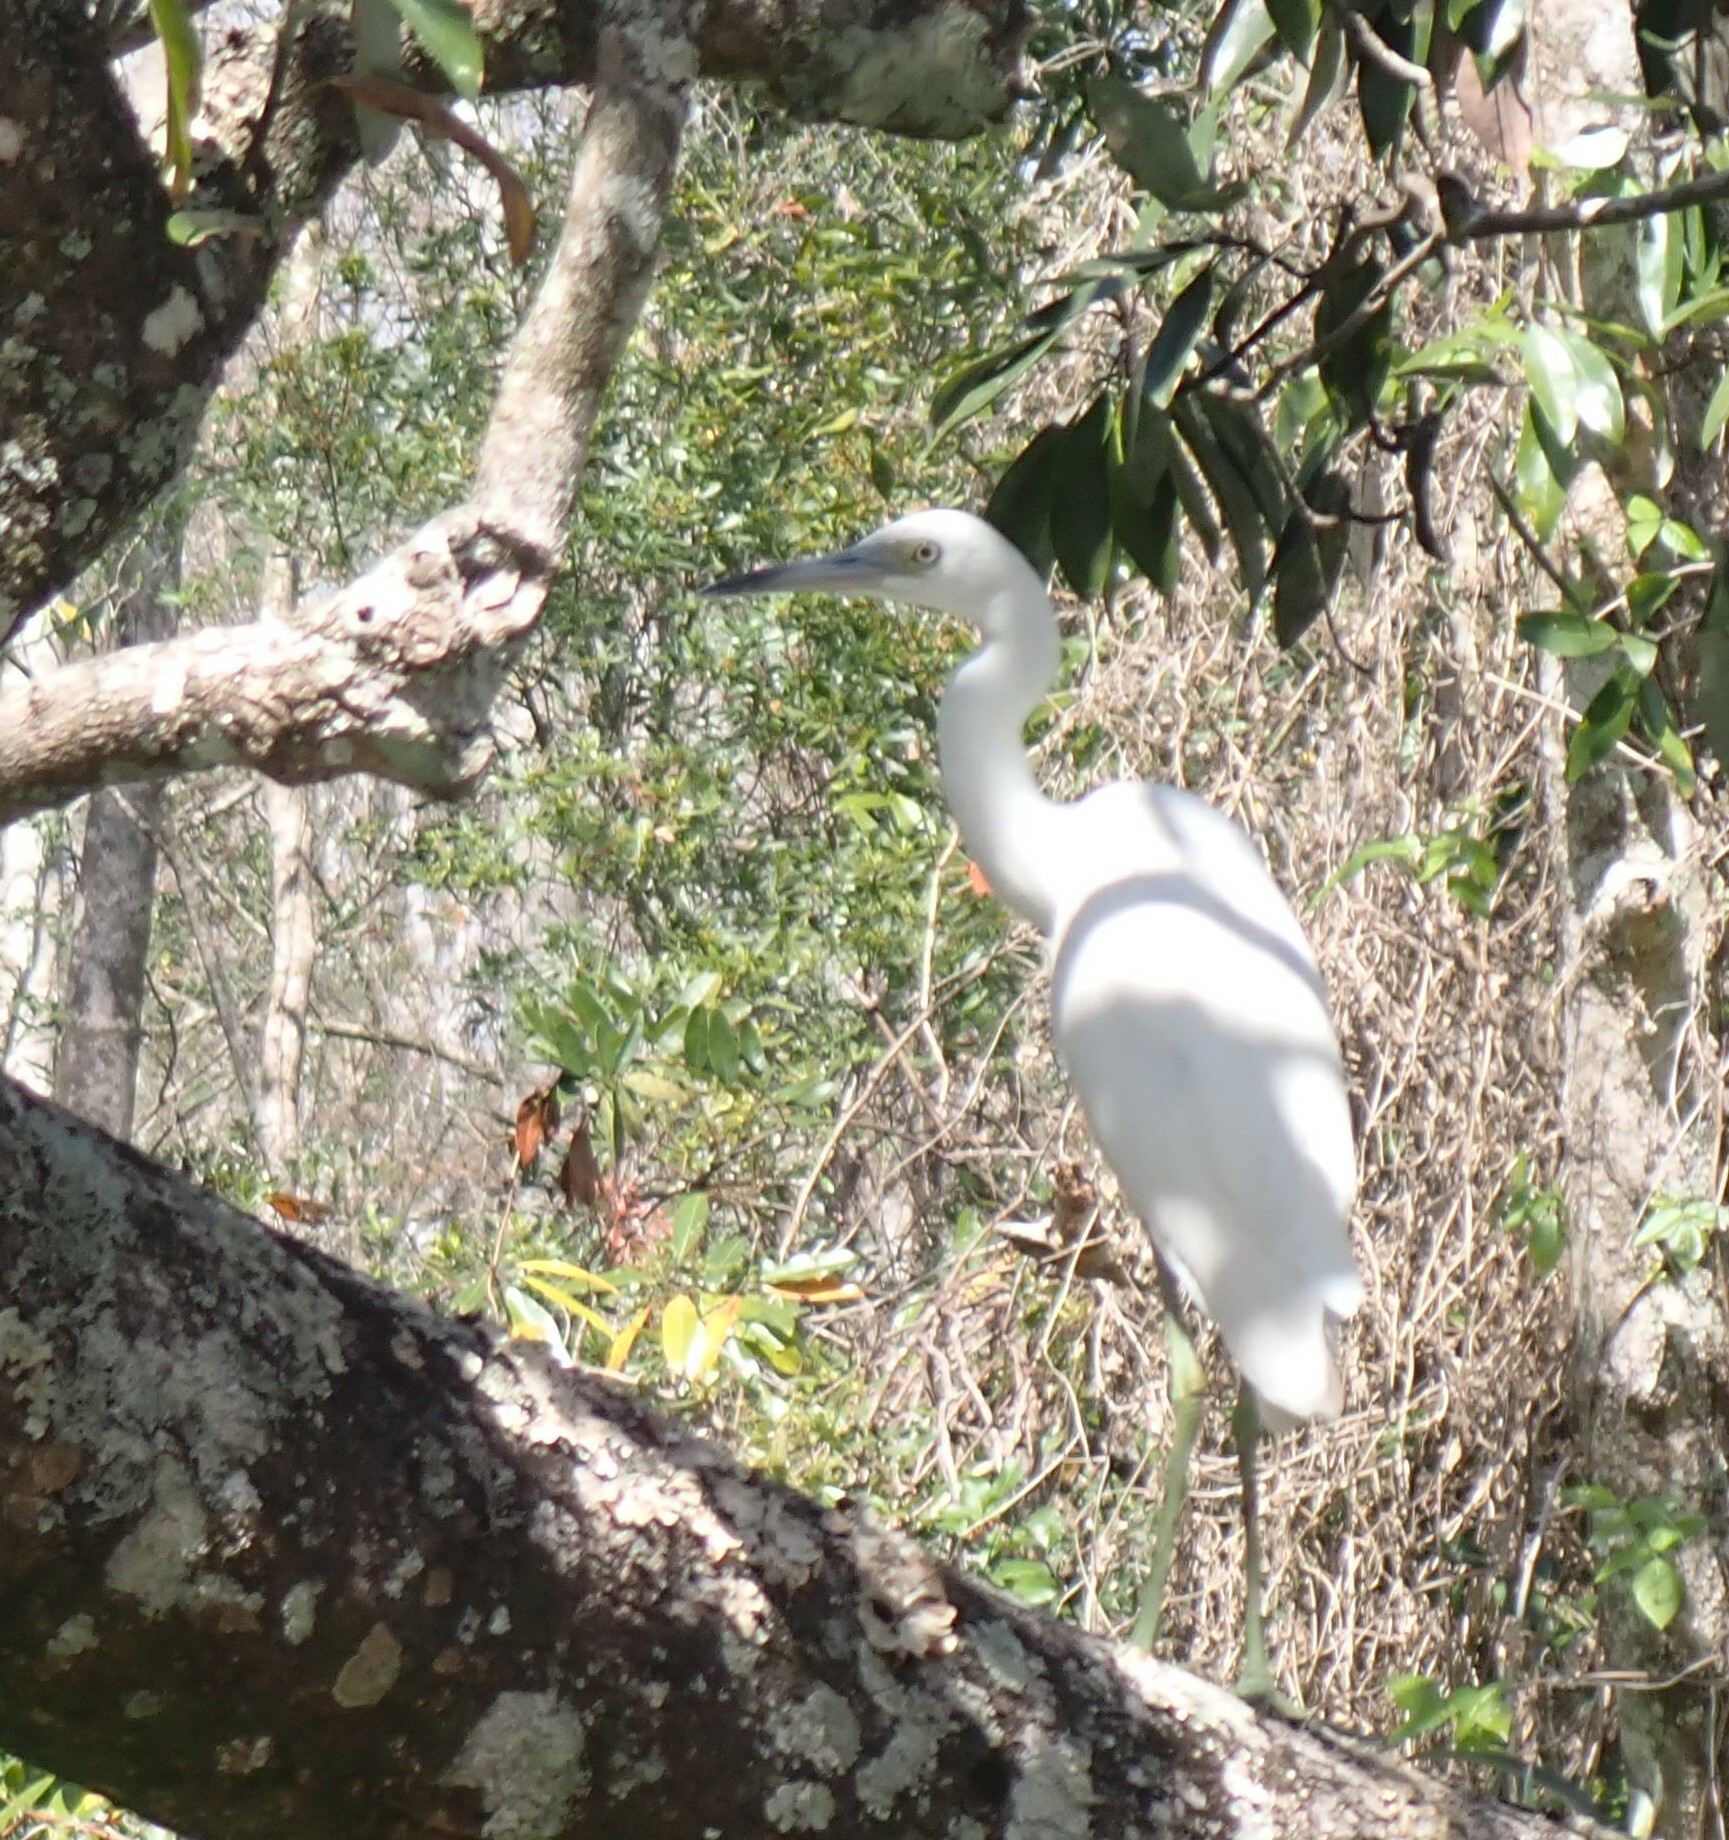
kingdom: Animalia
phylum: Chordata
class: Aves
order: Pelecaniformes
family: Ardeidae
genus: Egretta
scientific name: Egretta caerulea
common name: Little blue heron
